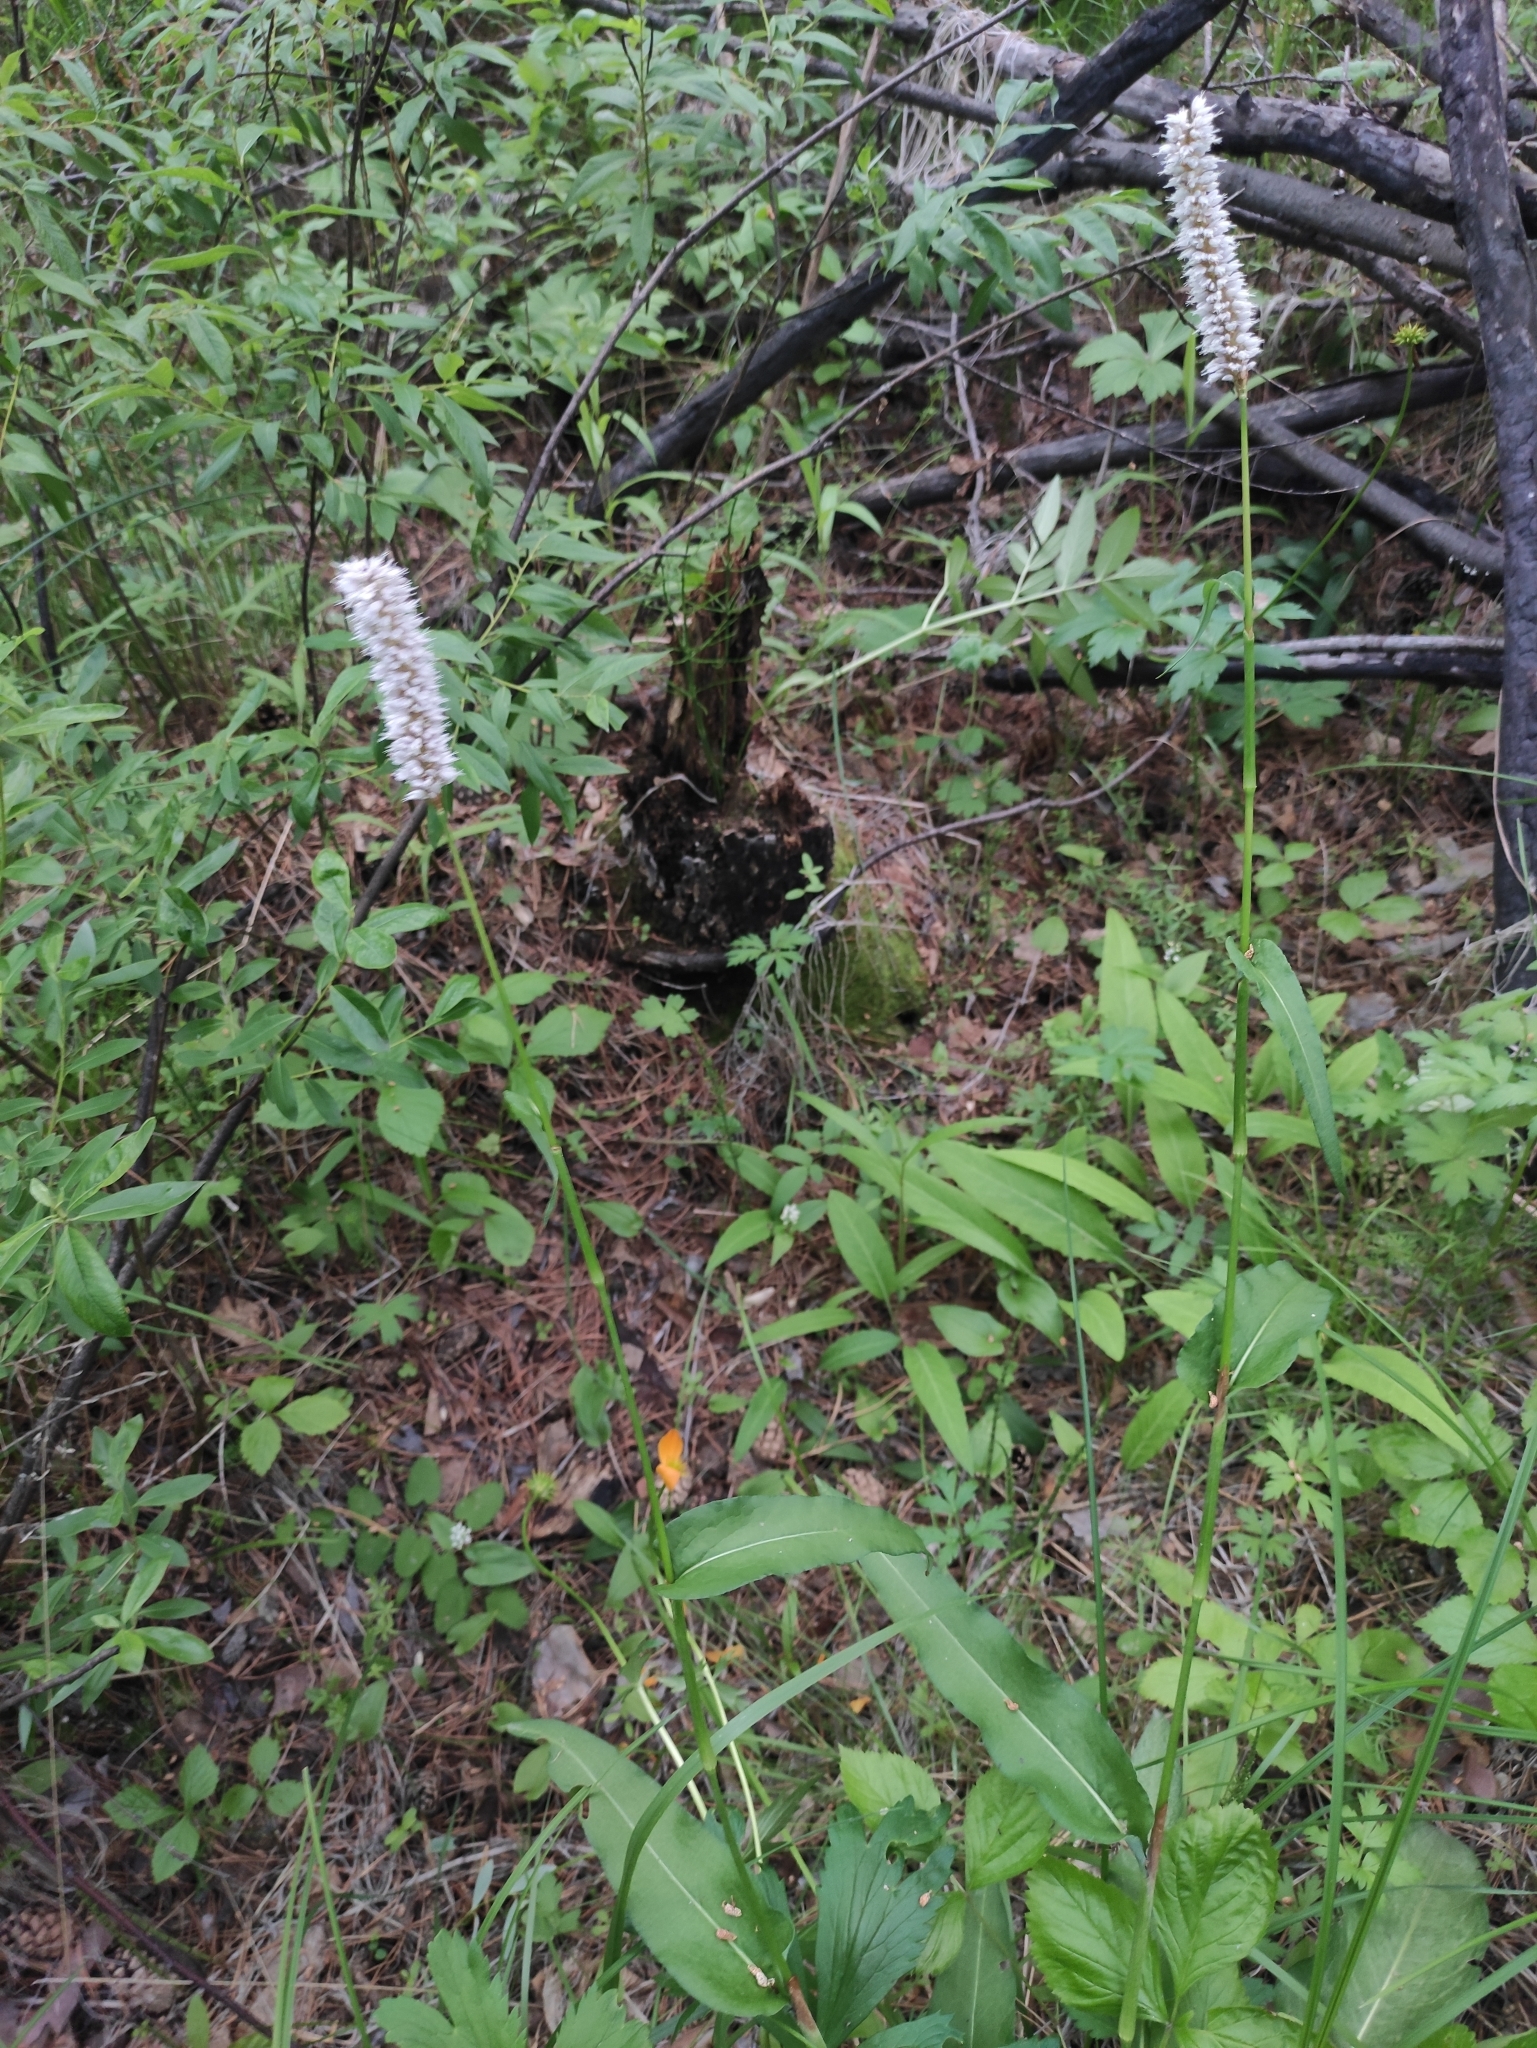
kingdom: Plantae
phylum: Tracheophyta
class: Magnoliopsida
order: Caryophyllales
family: Polygonaceae
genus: Bistorta
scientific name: Bistorta officinalis
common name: Common bistort
